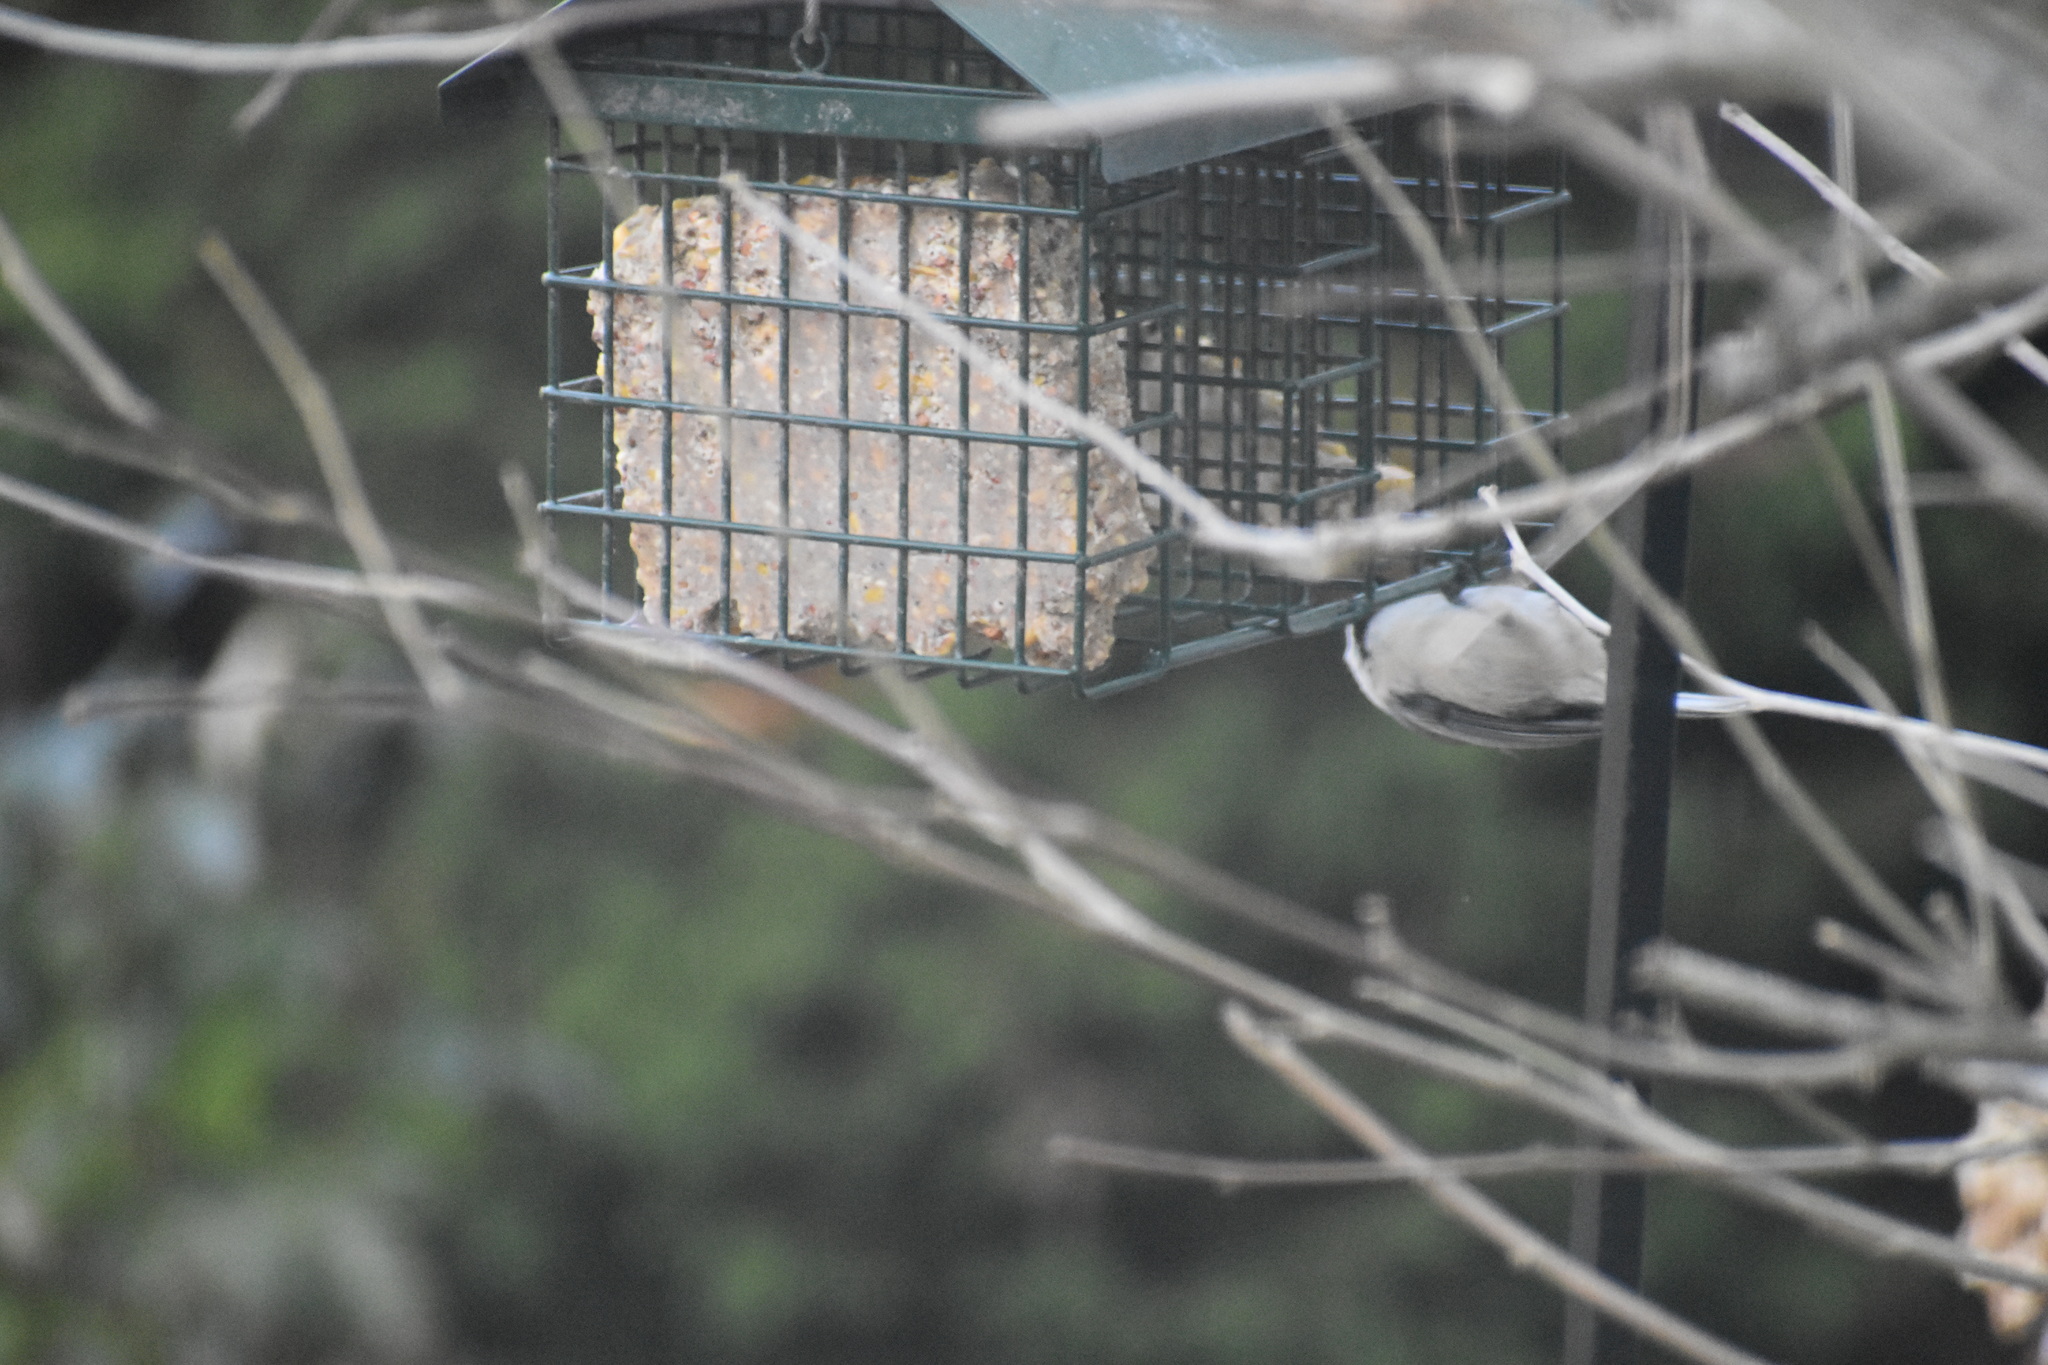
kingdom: Animalia
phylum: Chordata
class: Aves
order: Passeriformes
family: Paridae
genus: Poecile
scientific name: Poecile atricapillus
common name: Black-capped chickadee
